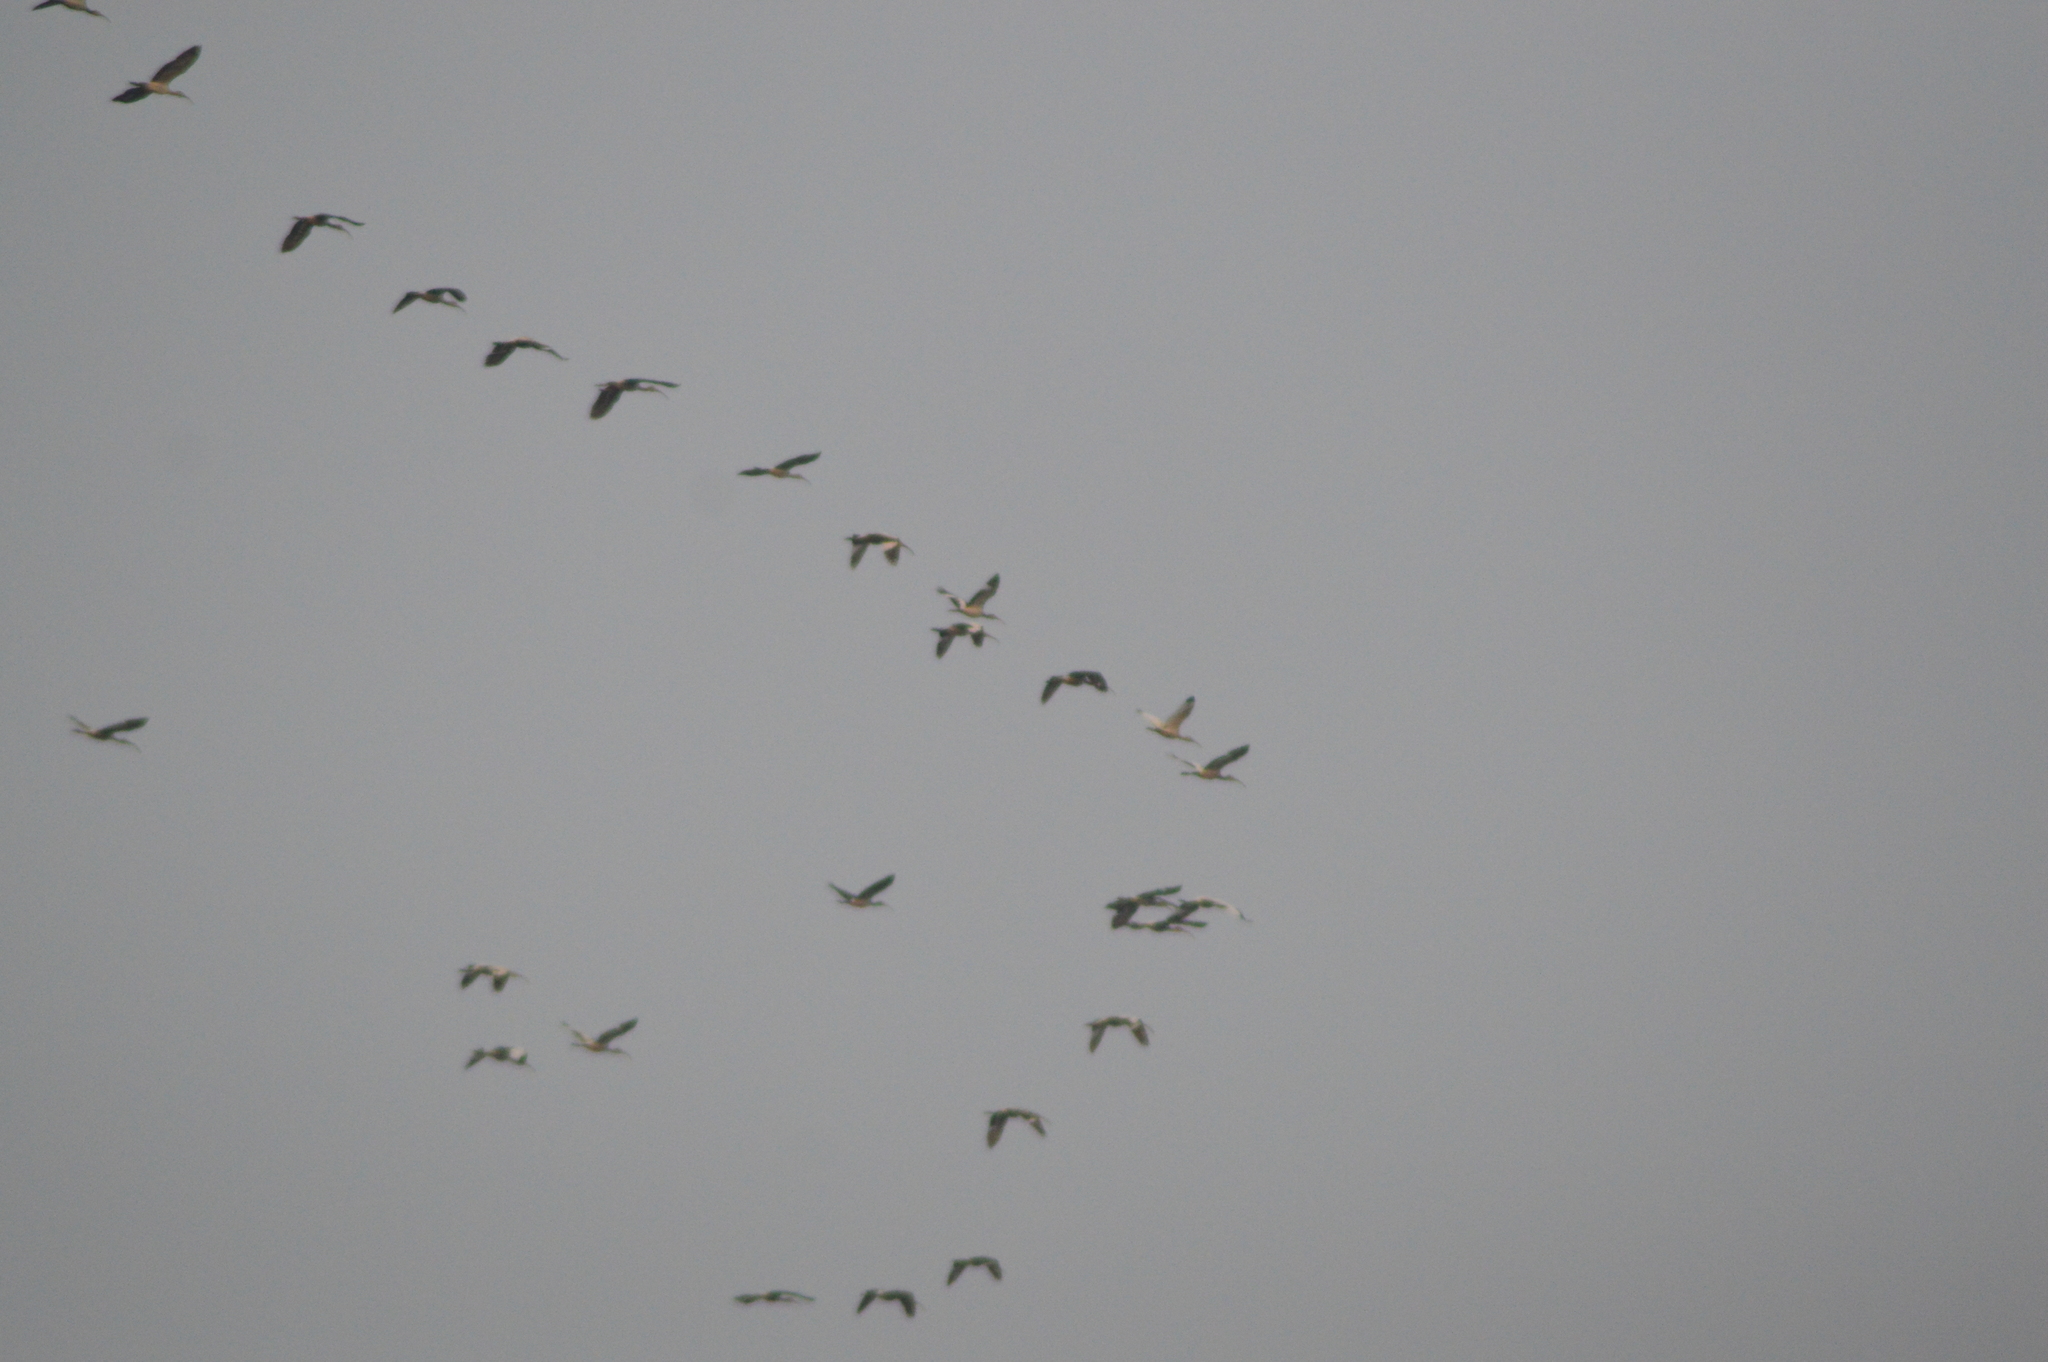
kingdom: Animalia
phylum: Chordata
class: Aves
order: Pelecaniformes
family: Threskiornithidae
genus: Eudocimus
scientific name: Eudocimus albus
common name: White ibis
